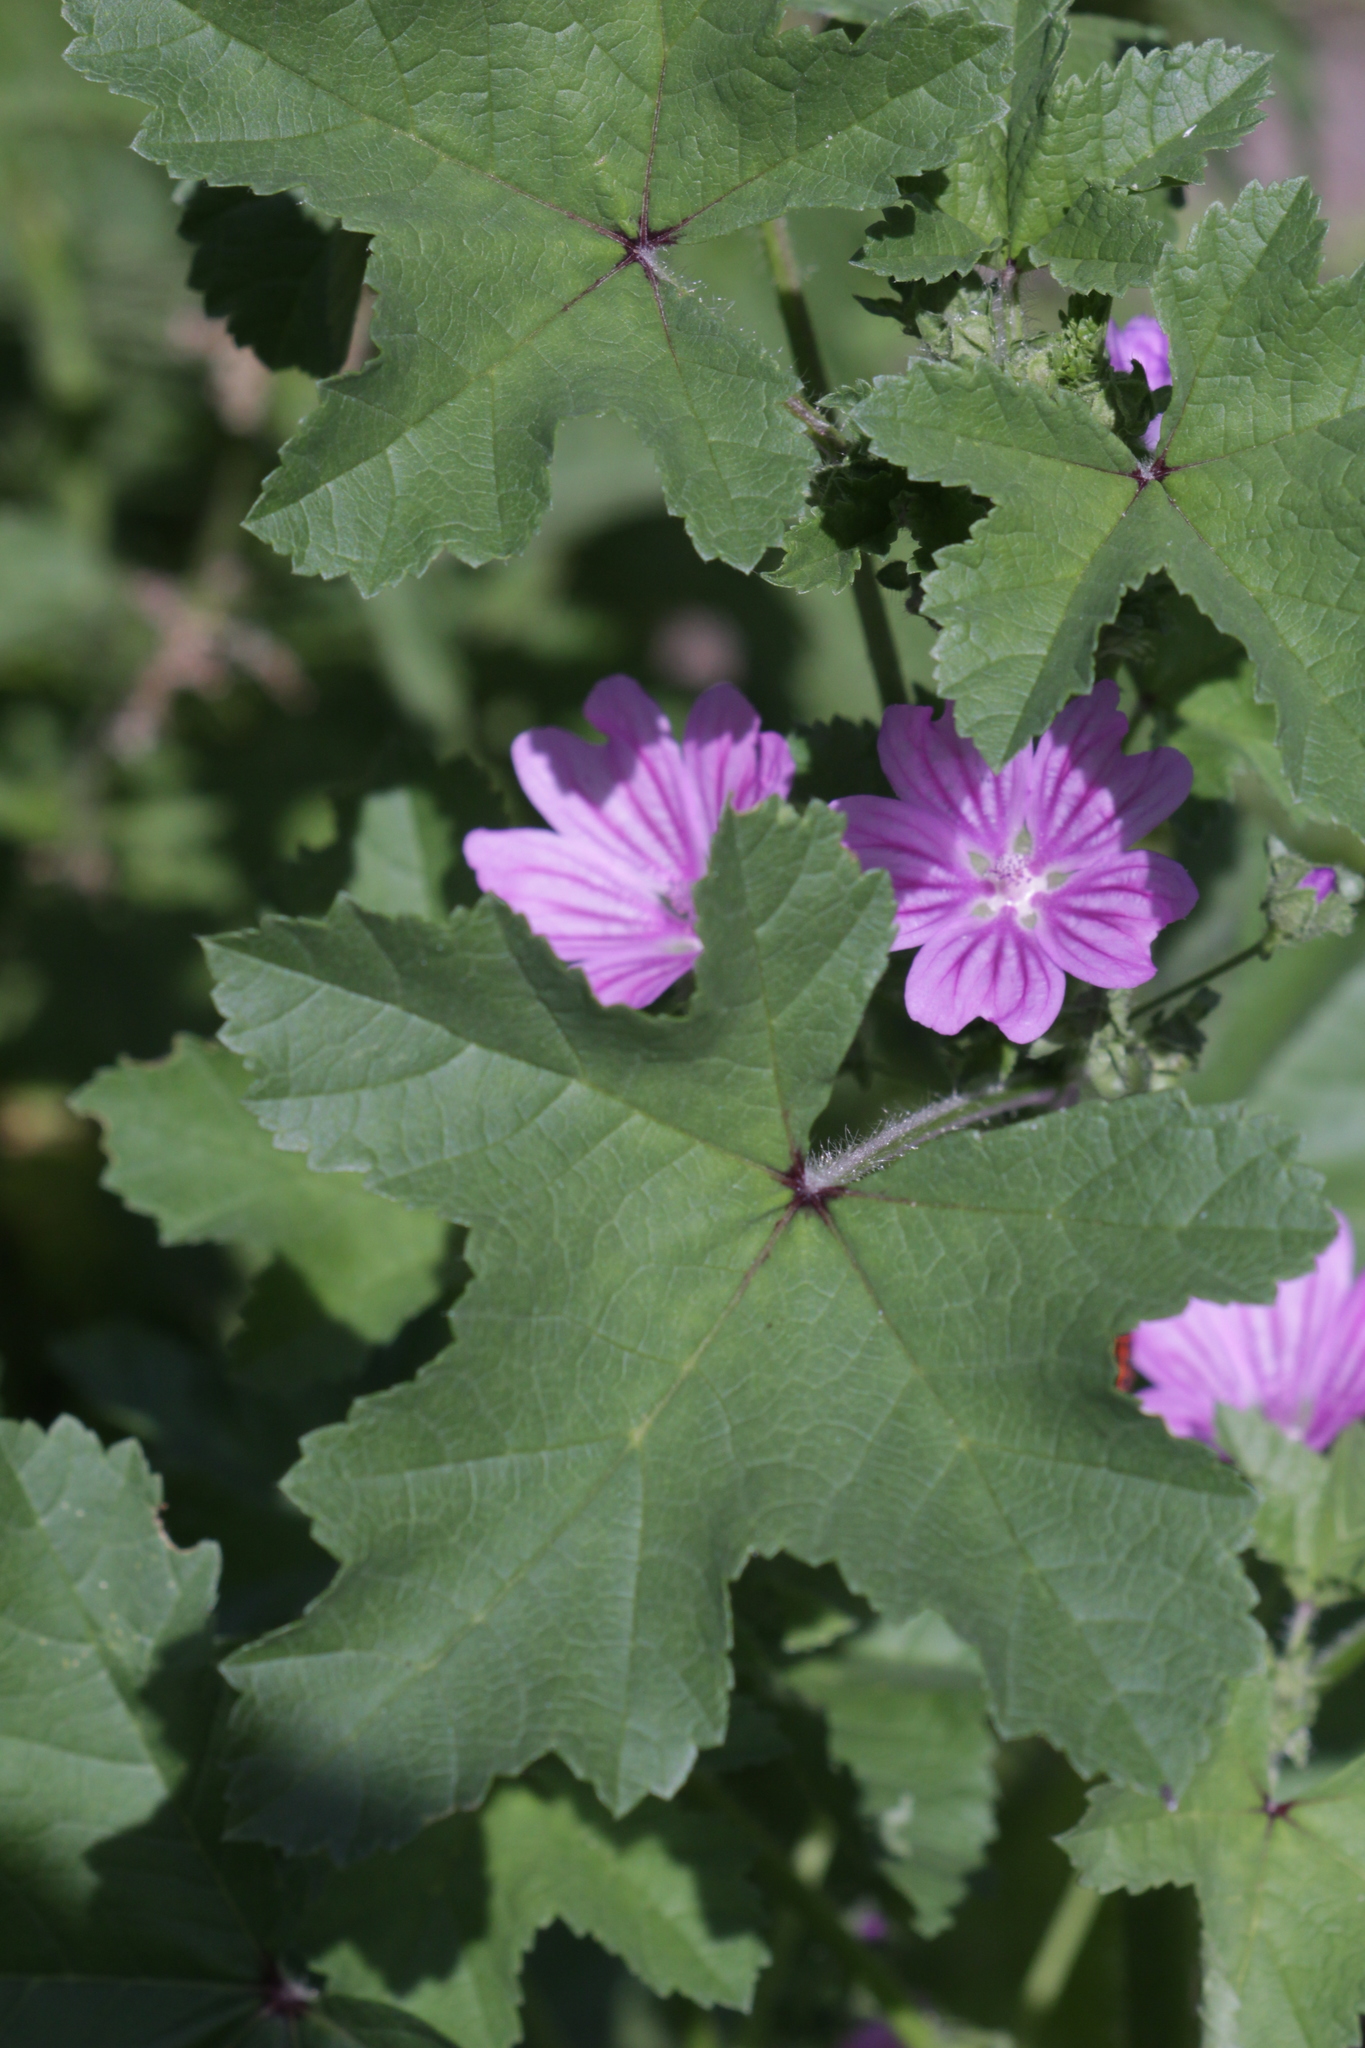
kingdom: Plantae
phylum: Tracheophyta
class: Magnoliopsida
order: Malvales
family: Malvaceae
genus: Malva
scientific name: Malva sylvestris
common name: Common mallow
